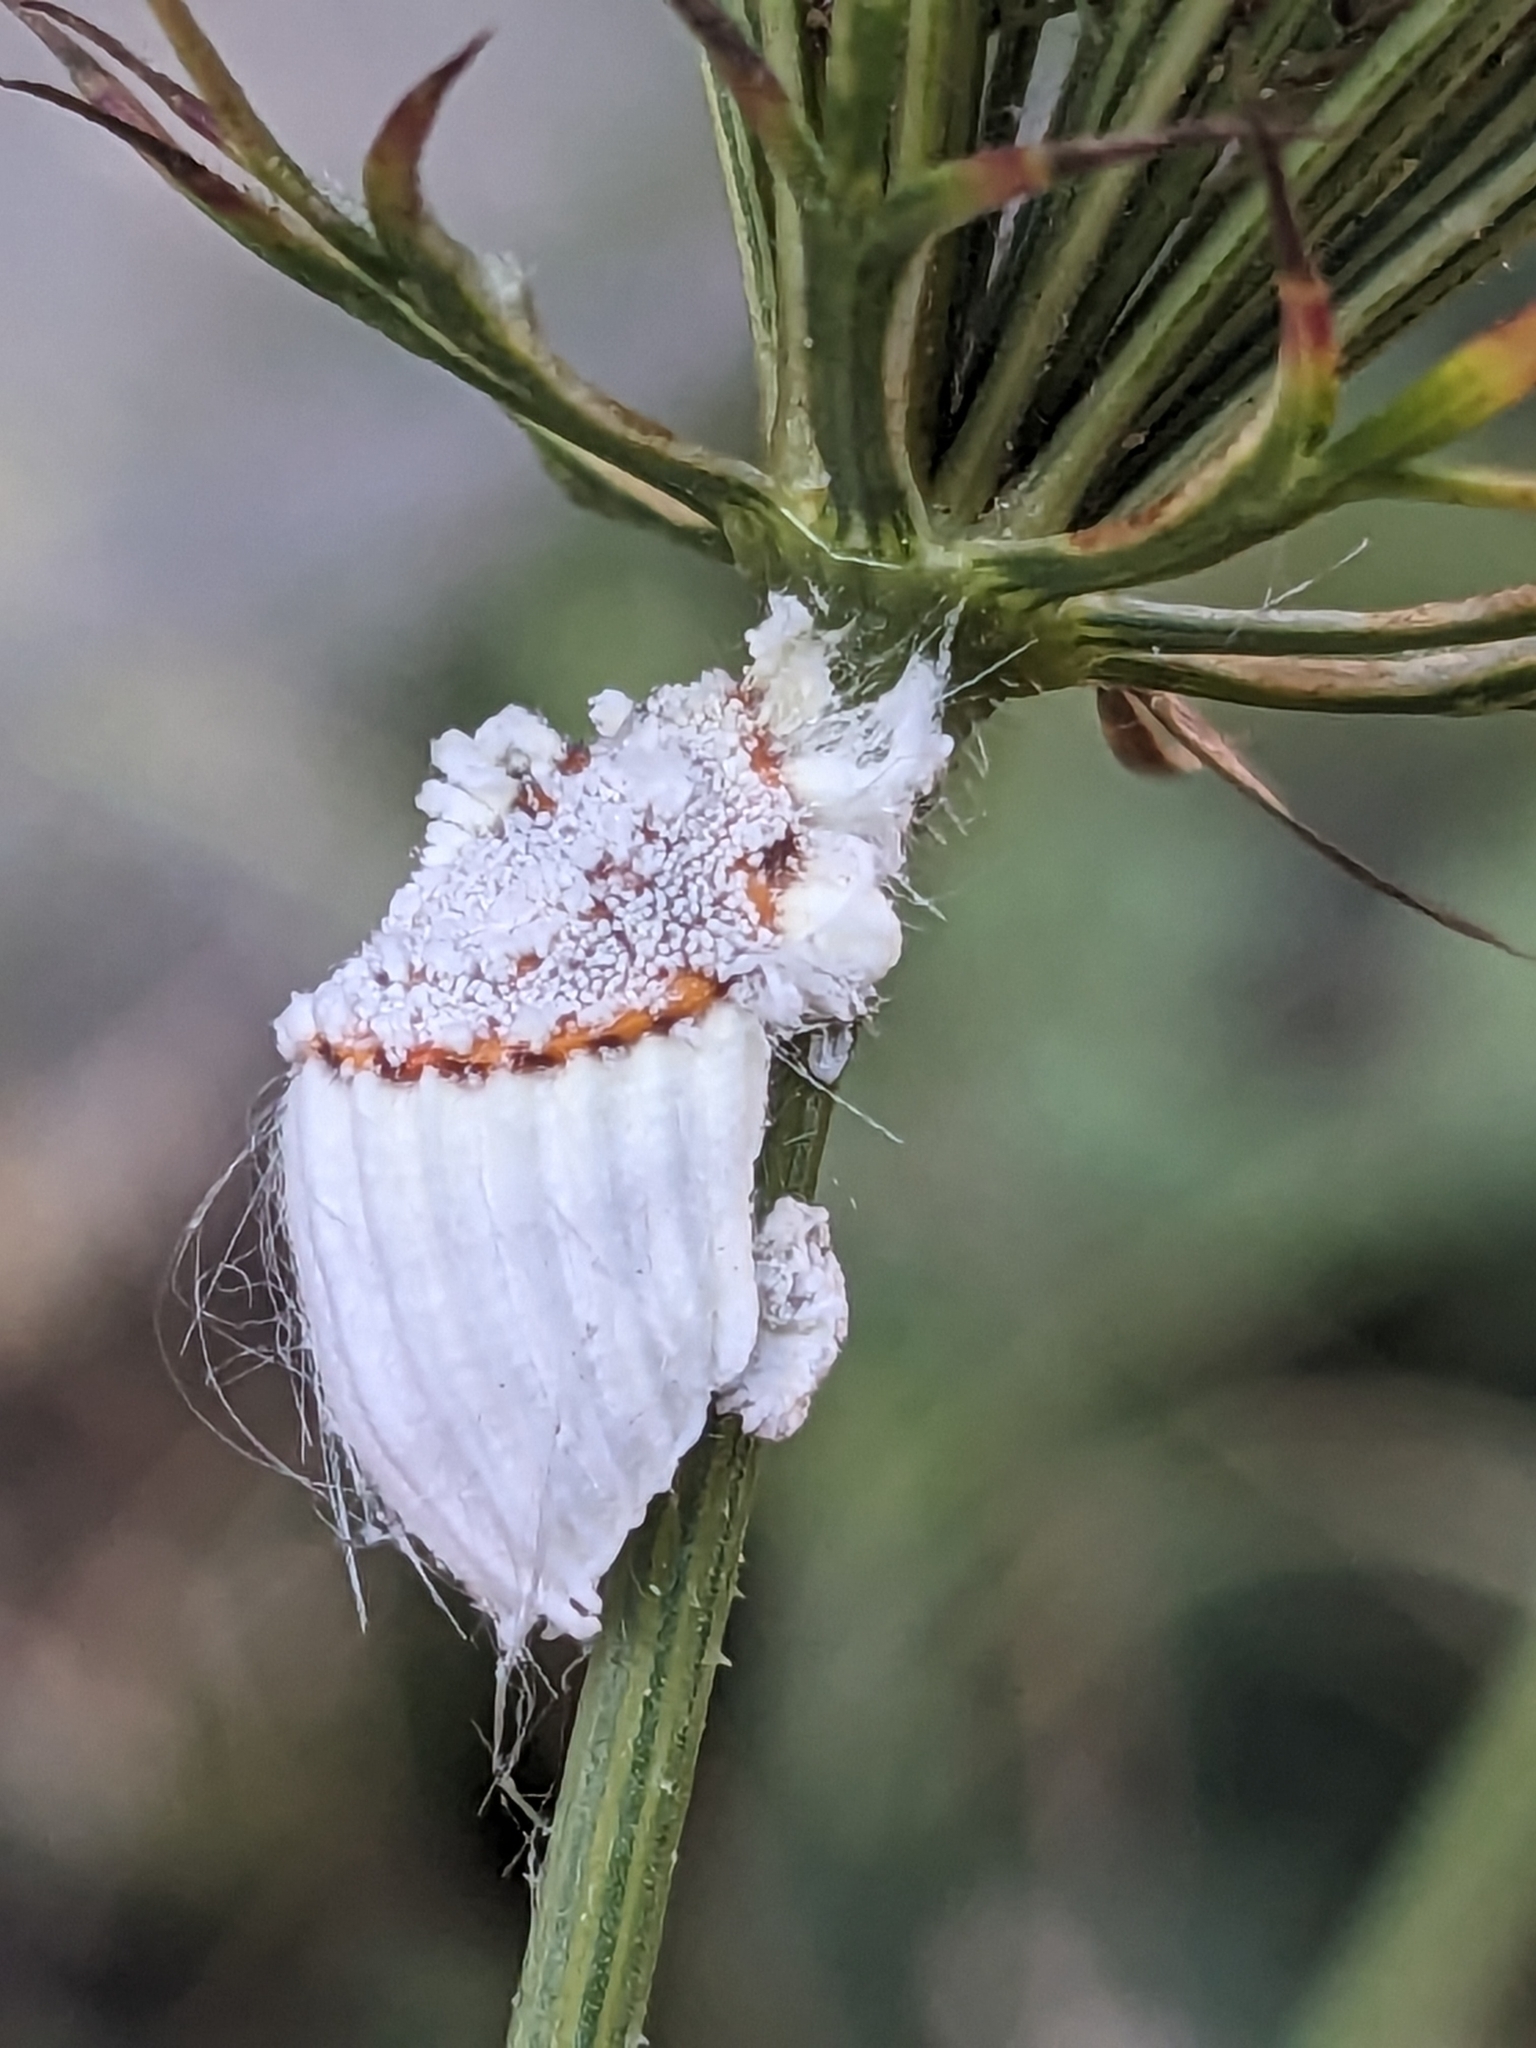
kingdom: Animalia
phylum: Arthropoda
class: Insecta
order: Hemiptera
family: Margarodidae
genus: Icerya
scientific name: Icerya purchasi
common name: Cottony cushion scale
